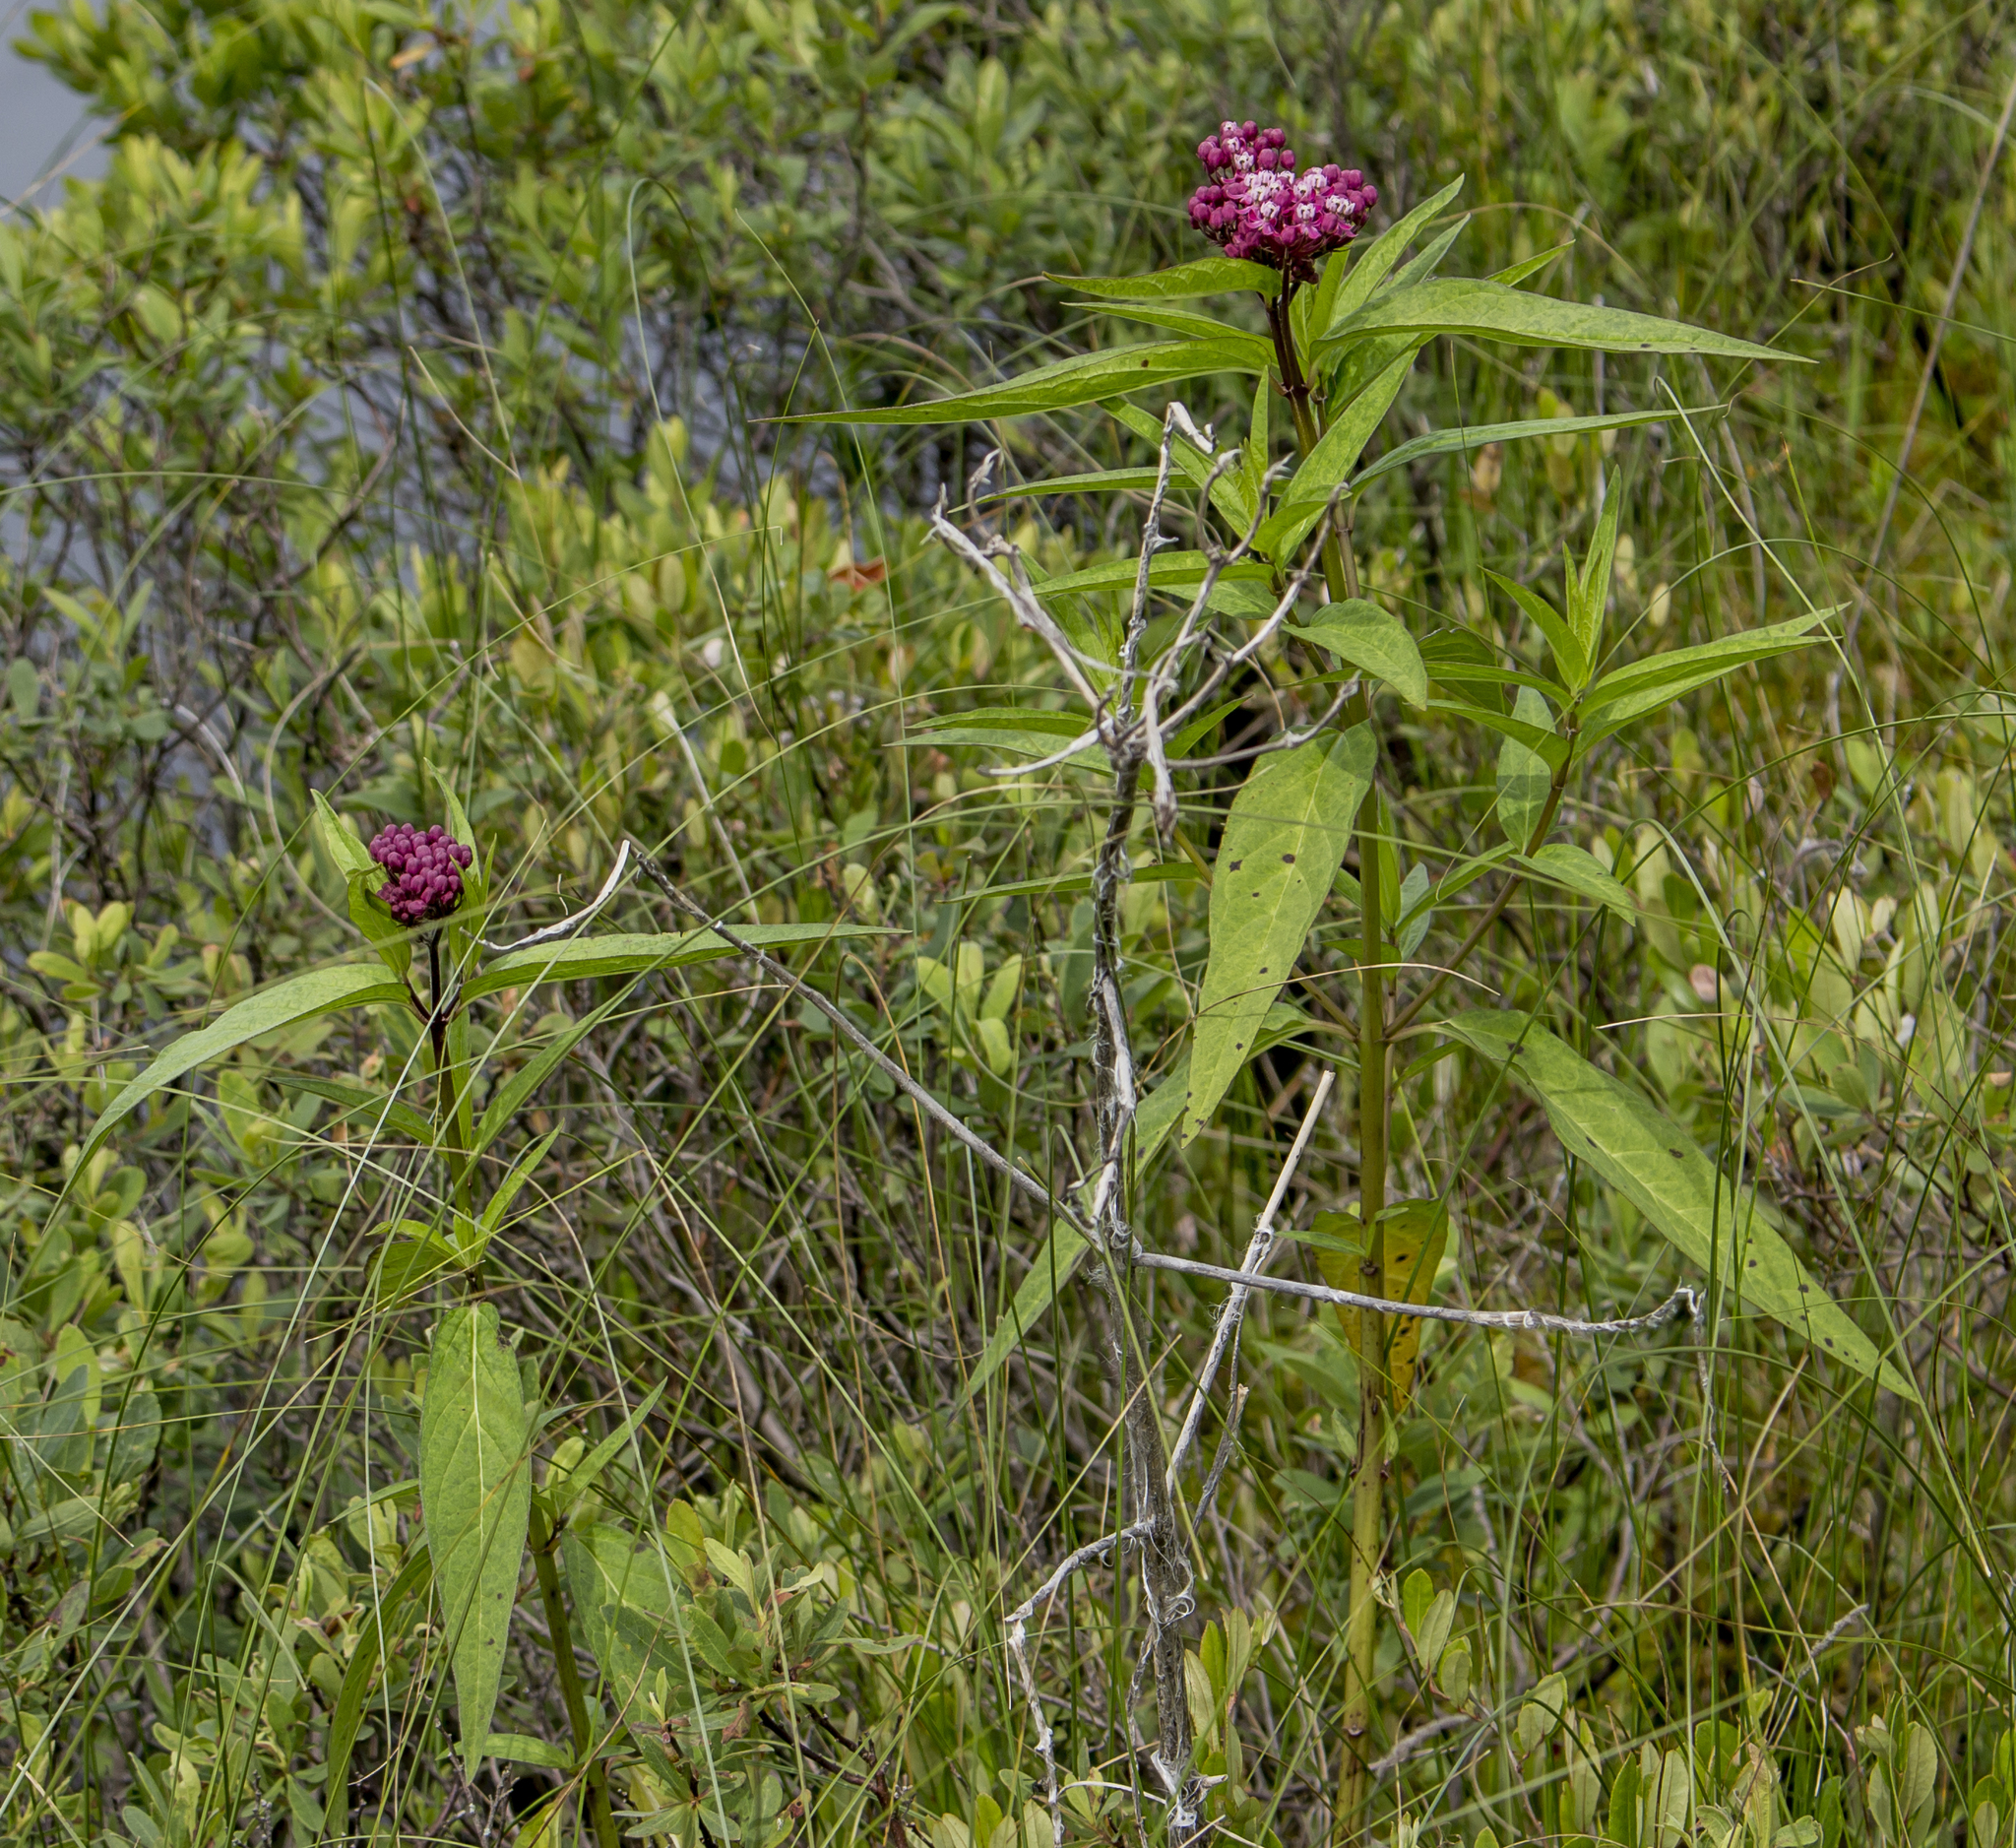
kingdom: Plantae
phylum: Tracheophyta
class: Magnoliopsida
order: Gentianales
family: Apocynaceae
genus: Asclepias
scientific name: Asclepias incarnata
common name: Swamp milkweed
